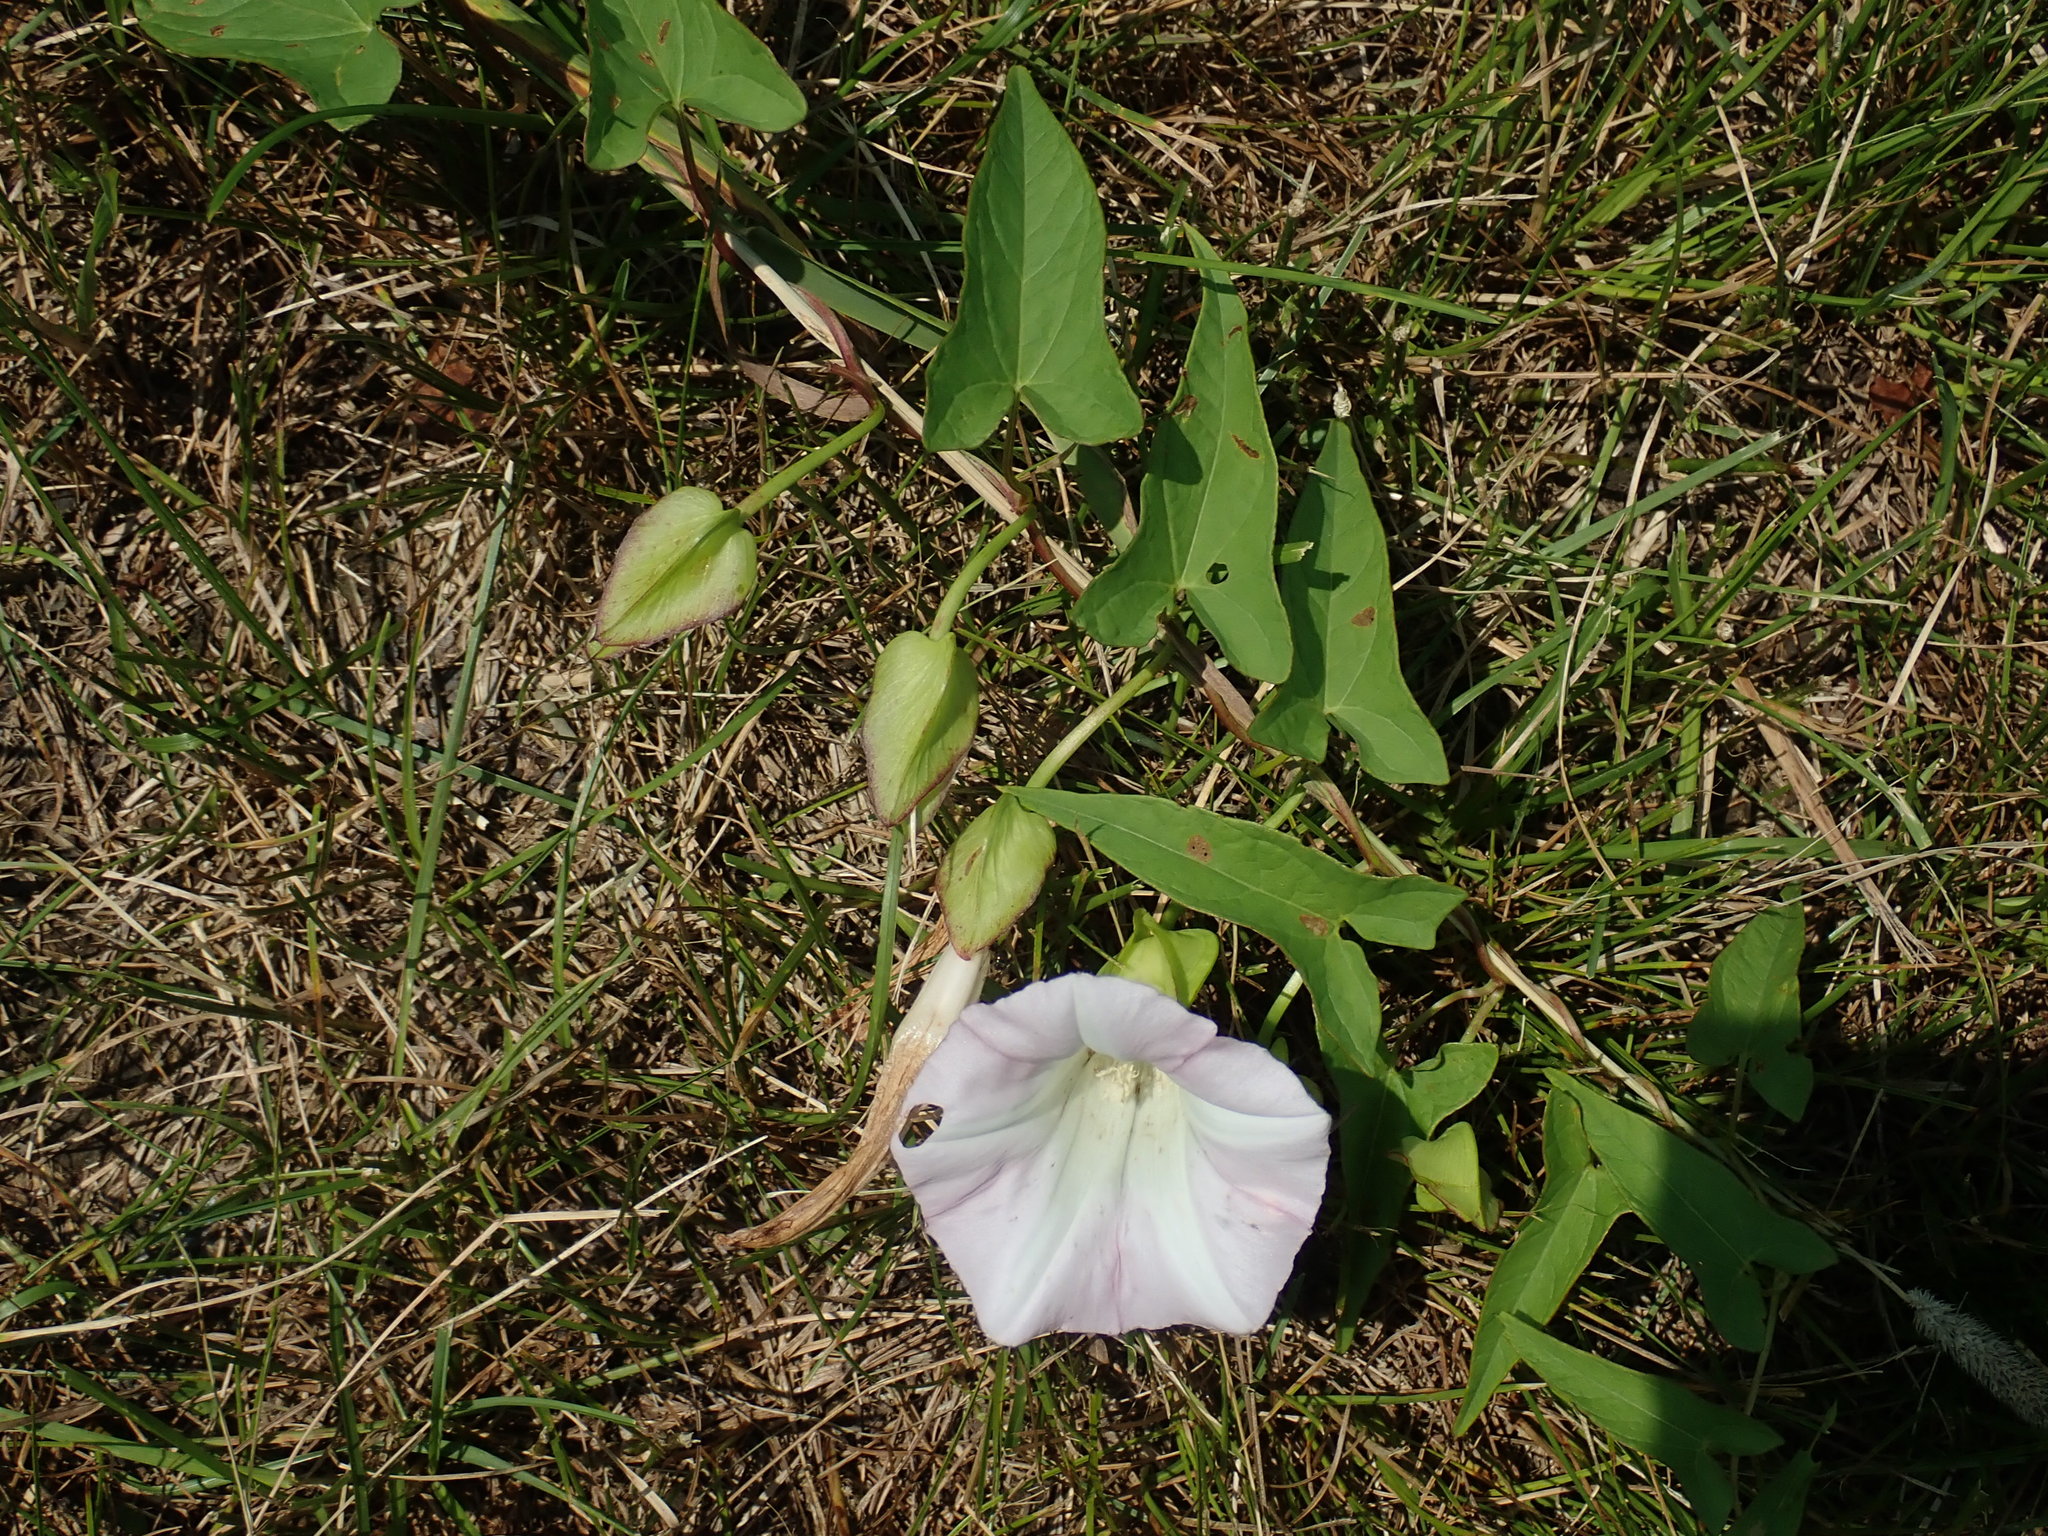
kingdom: Plantae
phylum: Tracheophyta
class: Magnoliopsida
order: Solanales
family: Convolvulaceae
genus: Calystegia
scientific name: Calystegia sepium
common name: Hedge bindweed
